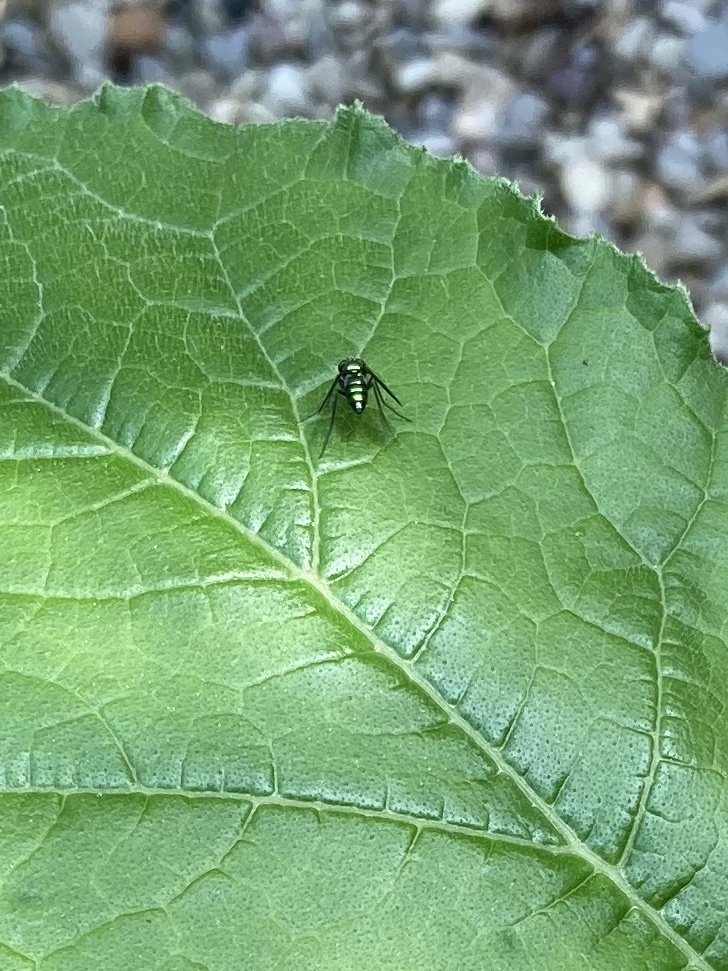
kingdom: Animalia
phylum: Arthropoda
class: Insecta
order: Diptera
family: Dolichopodidae
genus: Condylostylus
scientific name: Condylostylus patibulatus
